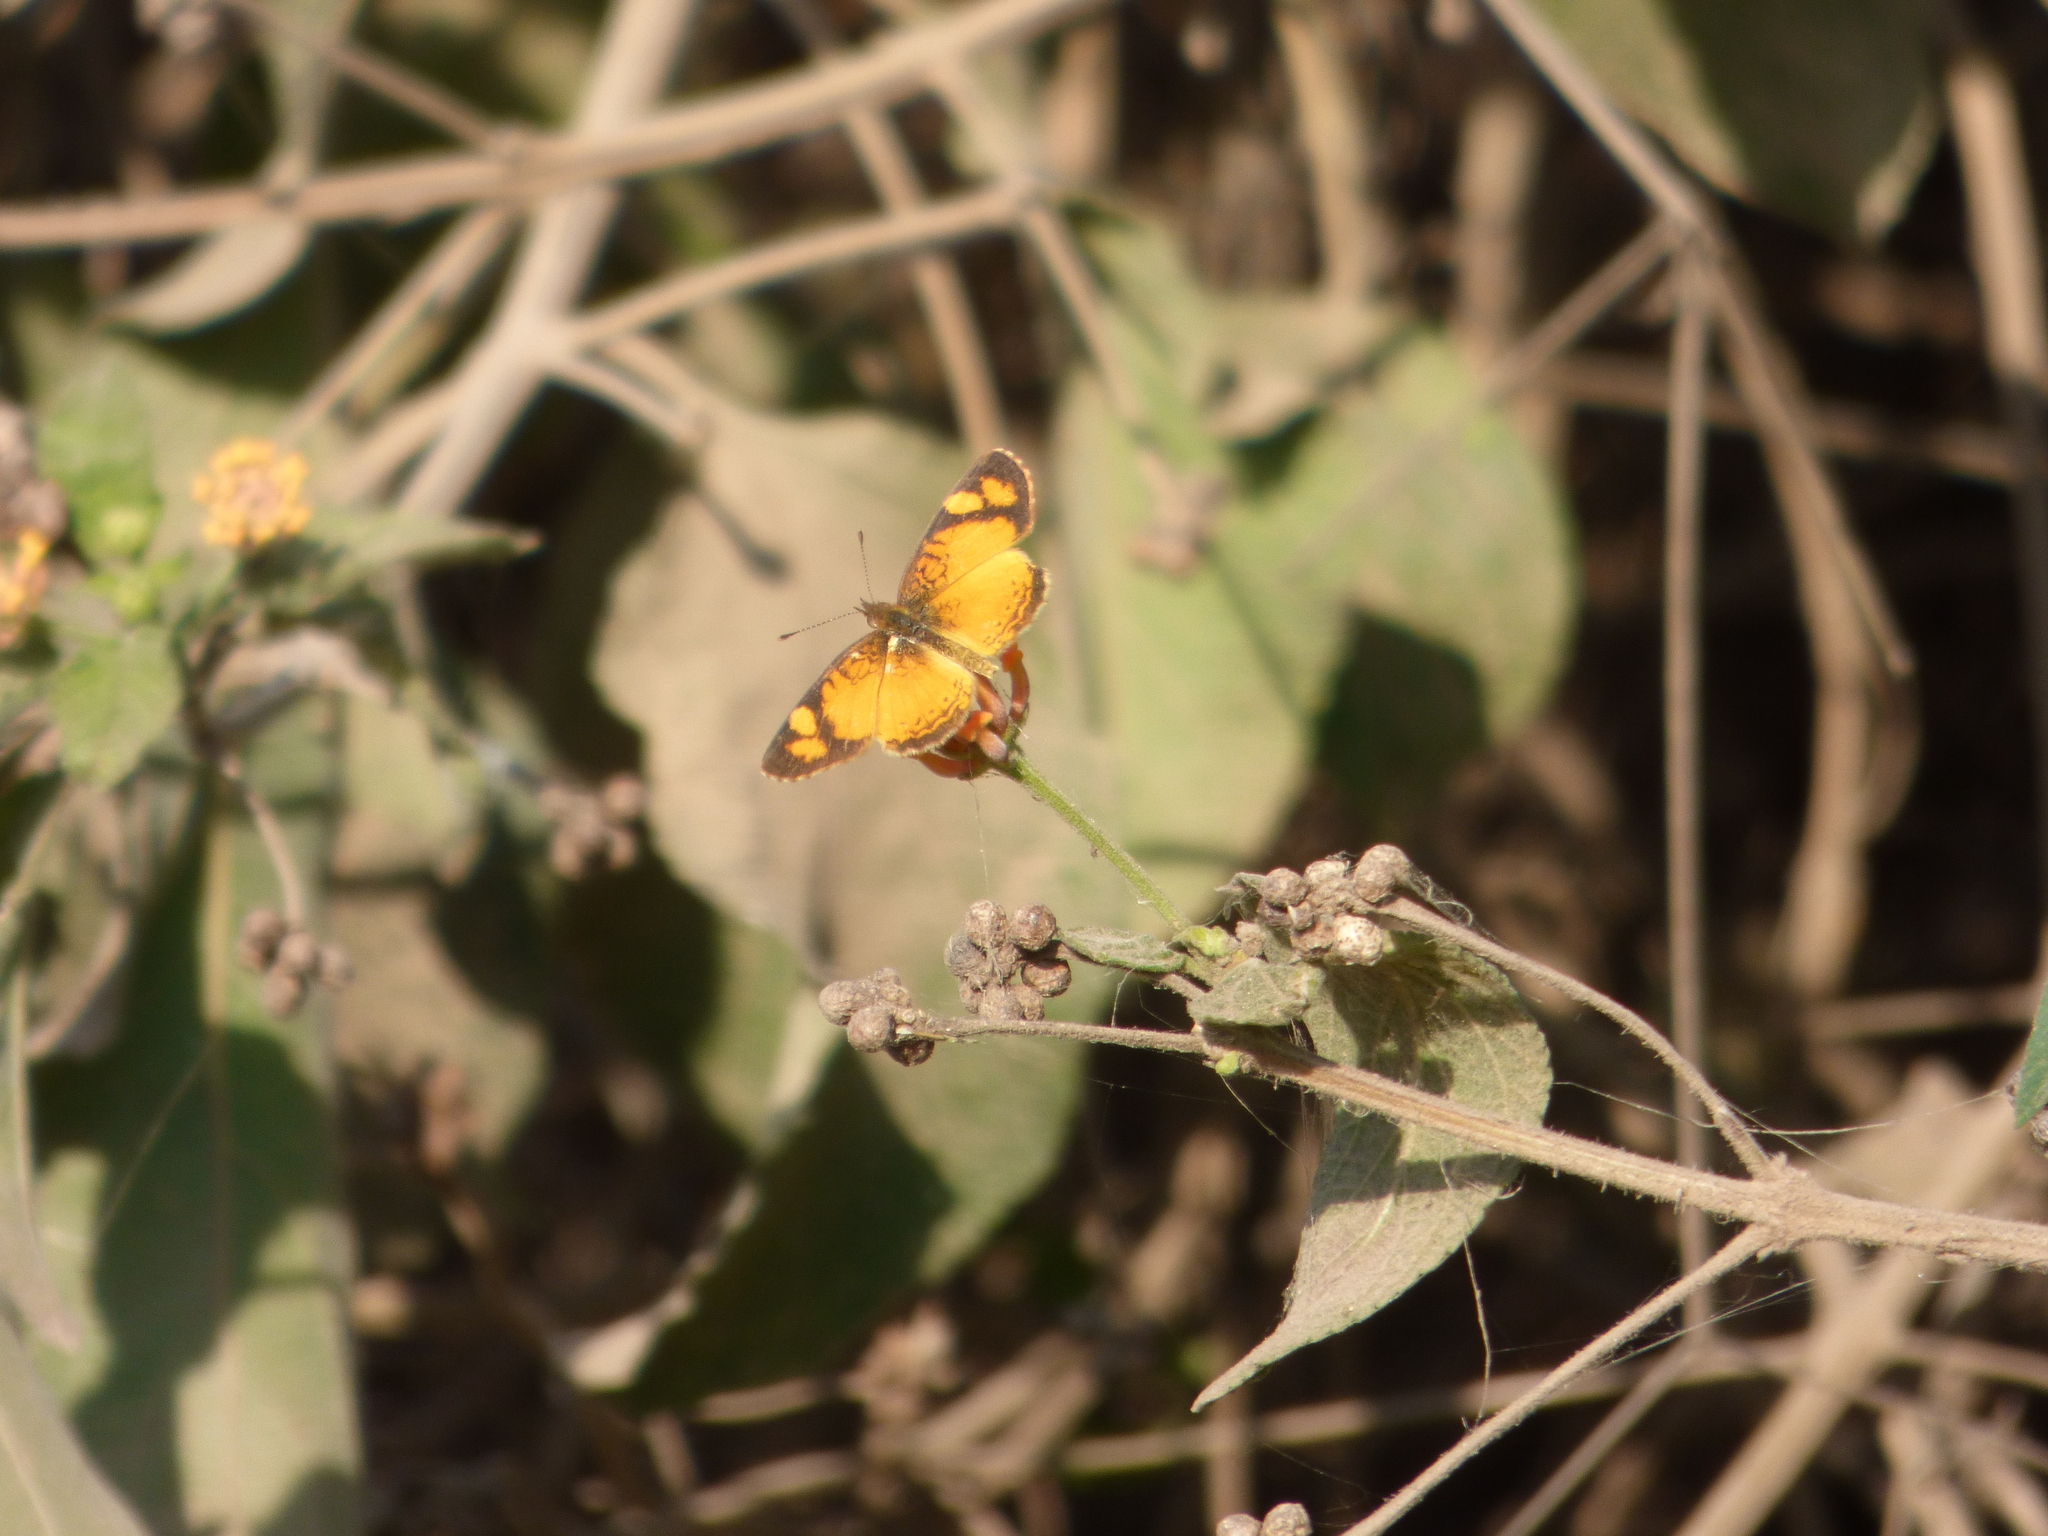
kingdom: Animalia
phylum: Arthropoda
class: Insecta
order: Lepidoptera
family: Nymphalidae
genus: Tegosa
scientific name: Tegosa claudina
